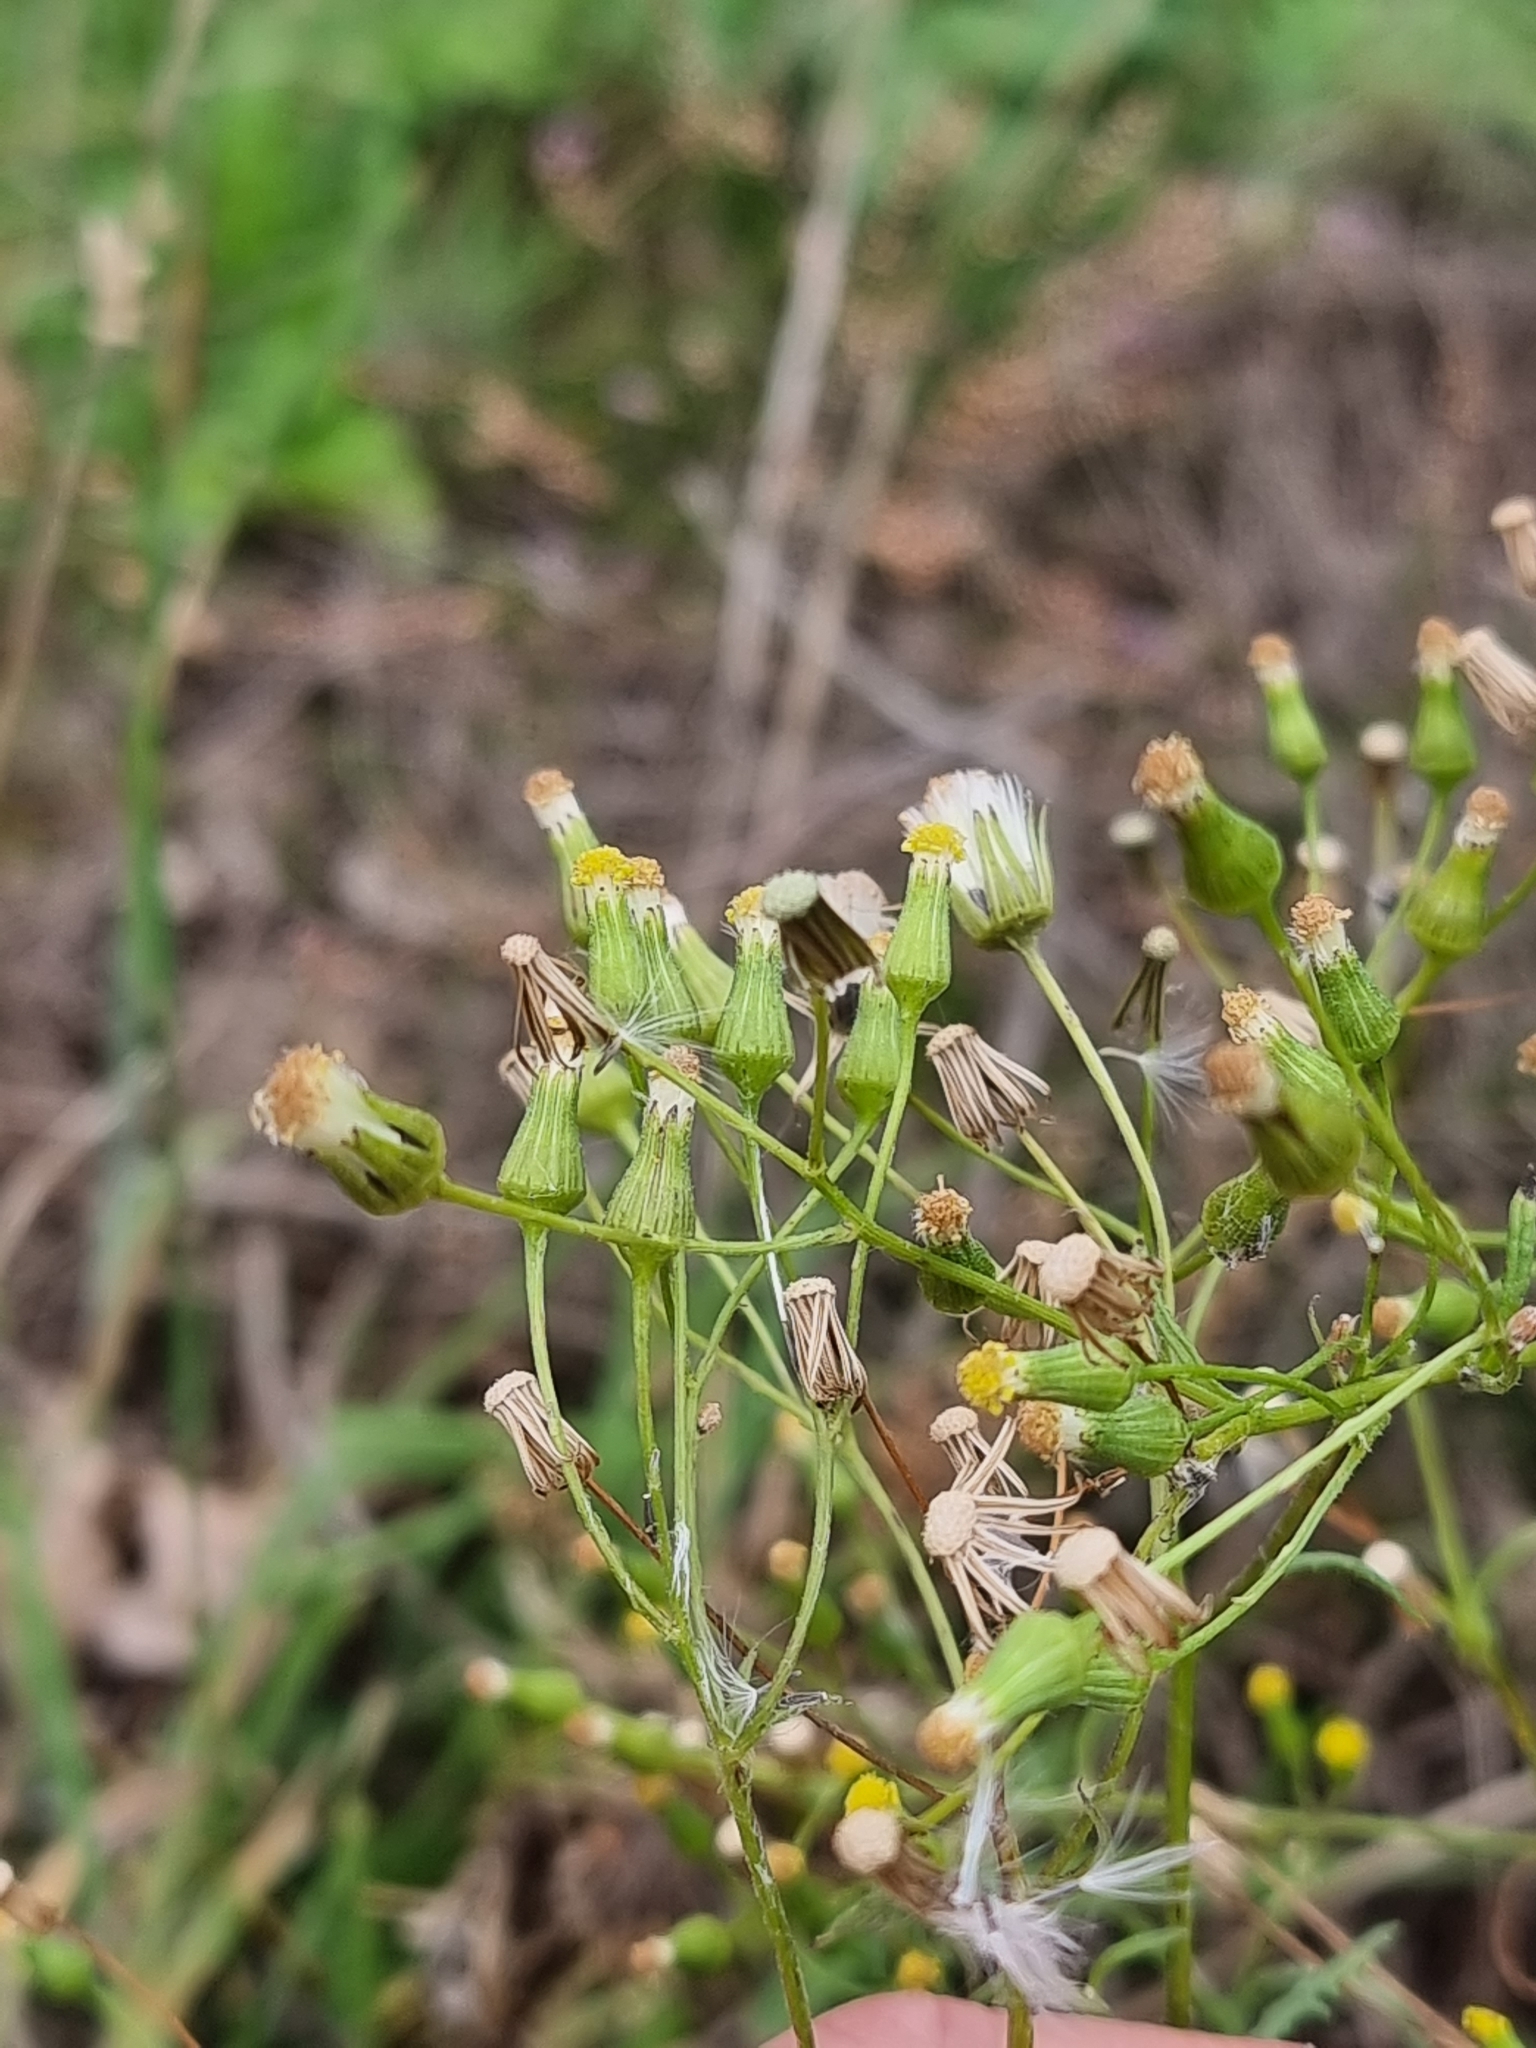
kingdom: Plantae
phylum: Tracheophyta
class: Magnoliopsida
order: Asterales
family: Asteraceae
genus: Senecio
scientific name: Senecio sylvaticus
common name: Woodland ragwort
